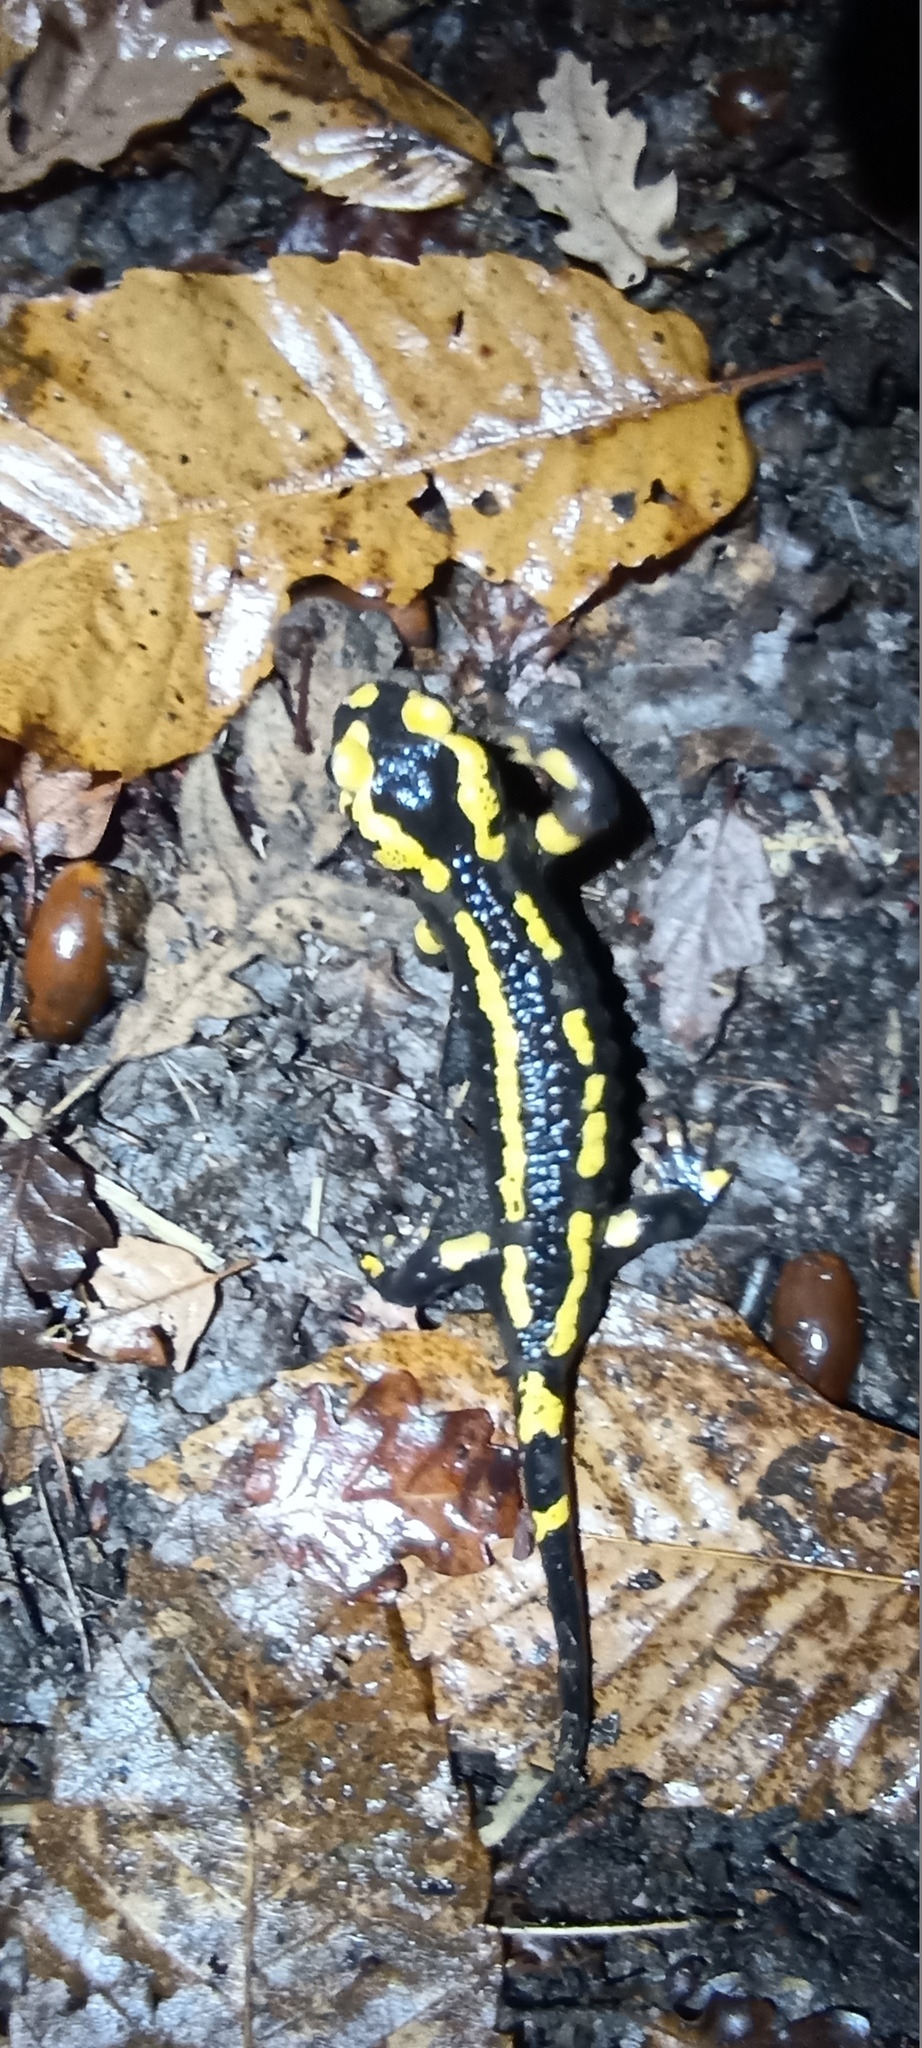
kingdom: Animalia
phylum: Chordata
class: Amphibia
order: Caudata
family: Salamandridae
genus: Salamandra
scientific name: Salamandra salamandra
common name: Fire salamander
